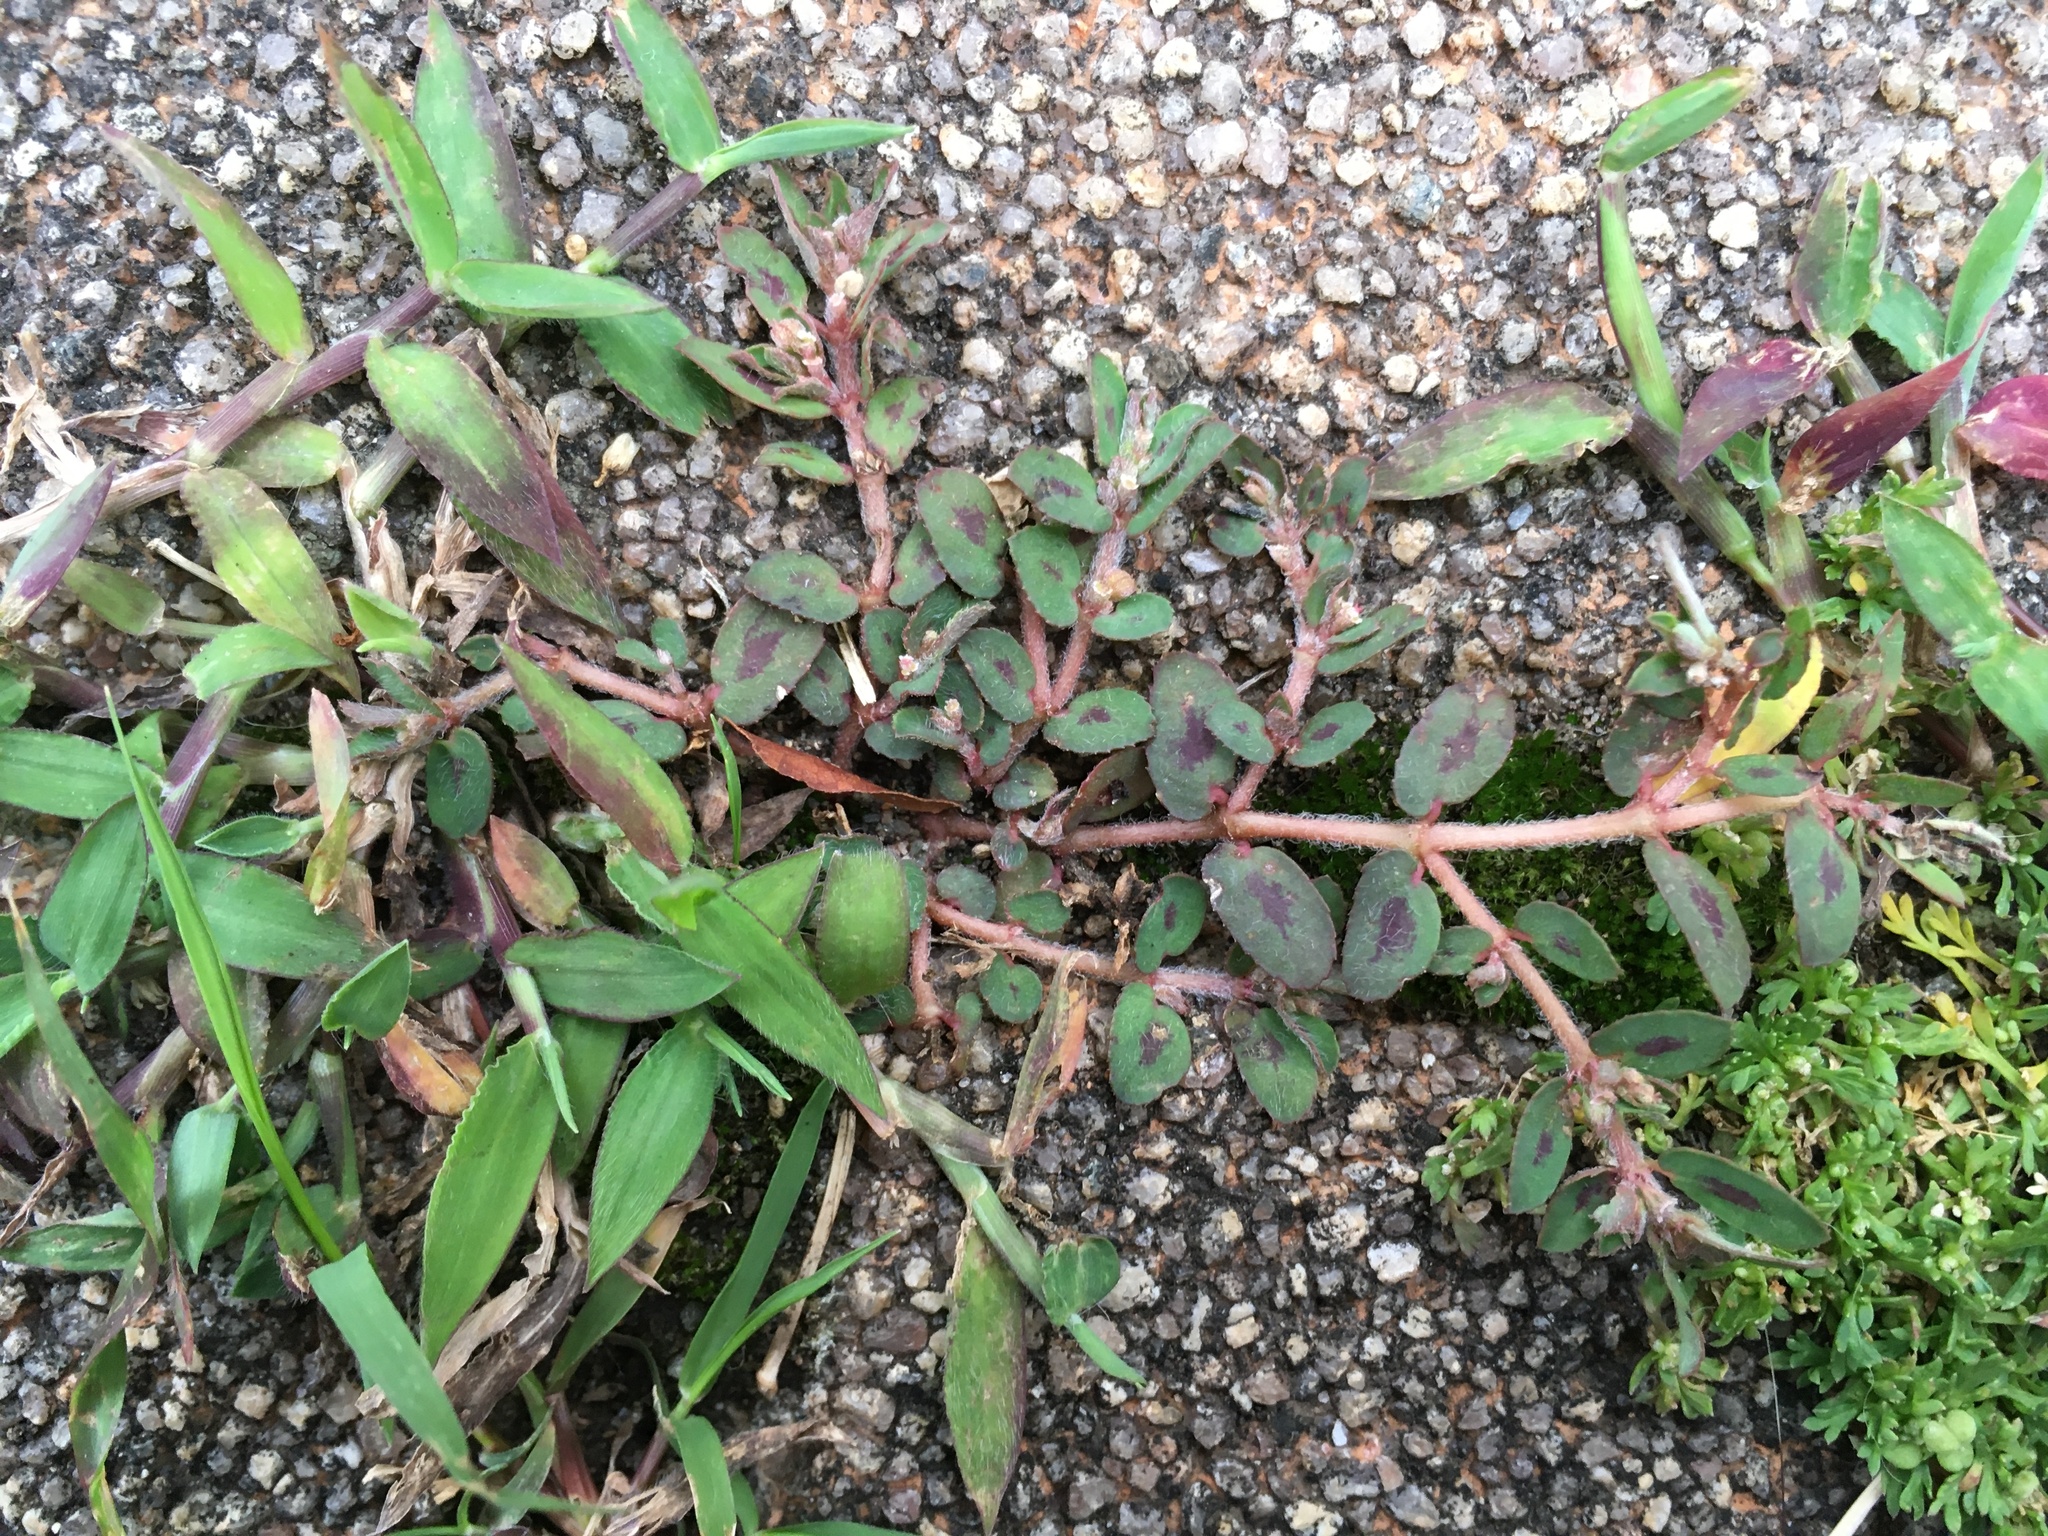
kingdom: Plantae
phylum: Tracheophyta
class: Magnoliopsida
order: Malpighiales
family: Euphorbiaceae
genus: Euphorbia
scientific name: Euphorbia maculata
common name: Spotted spurge
